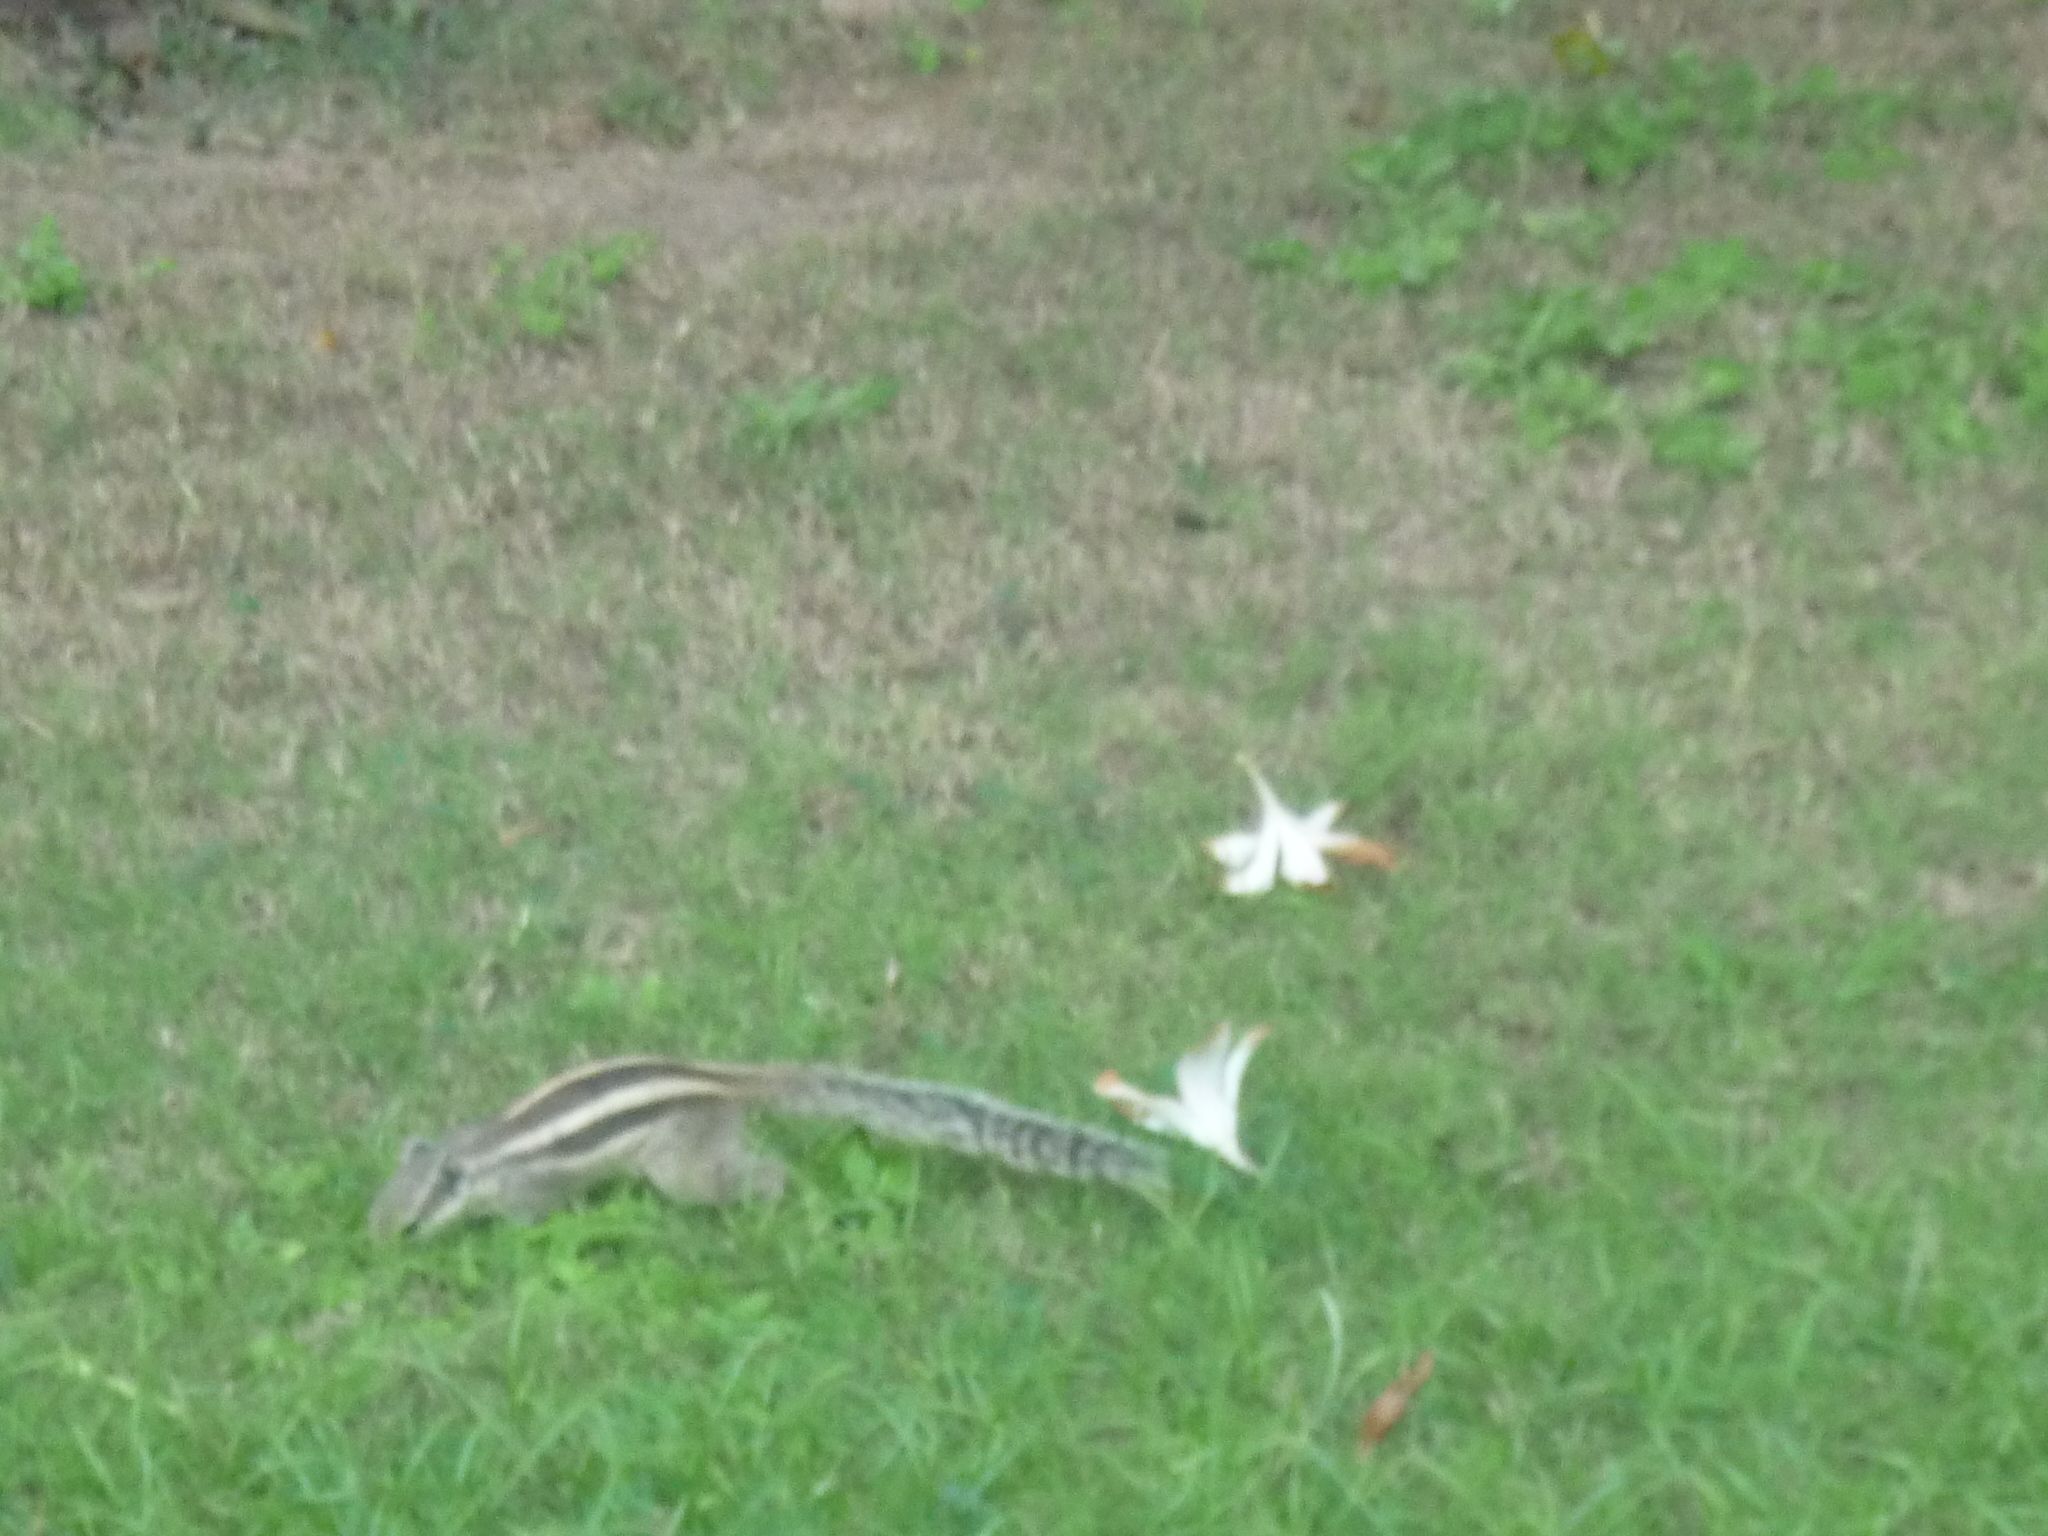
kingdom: Animalia
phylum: Chordata
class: Mammalia
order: Rodentia
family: Sciuridae
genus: Funambulus
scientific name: Funambulus pennantii
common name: Northern palm squirrel
